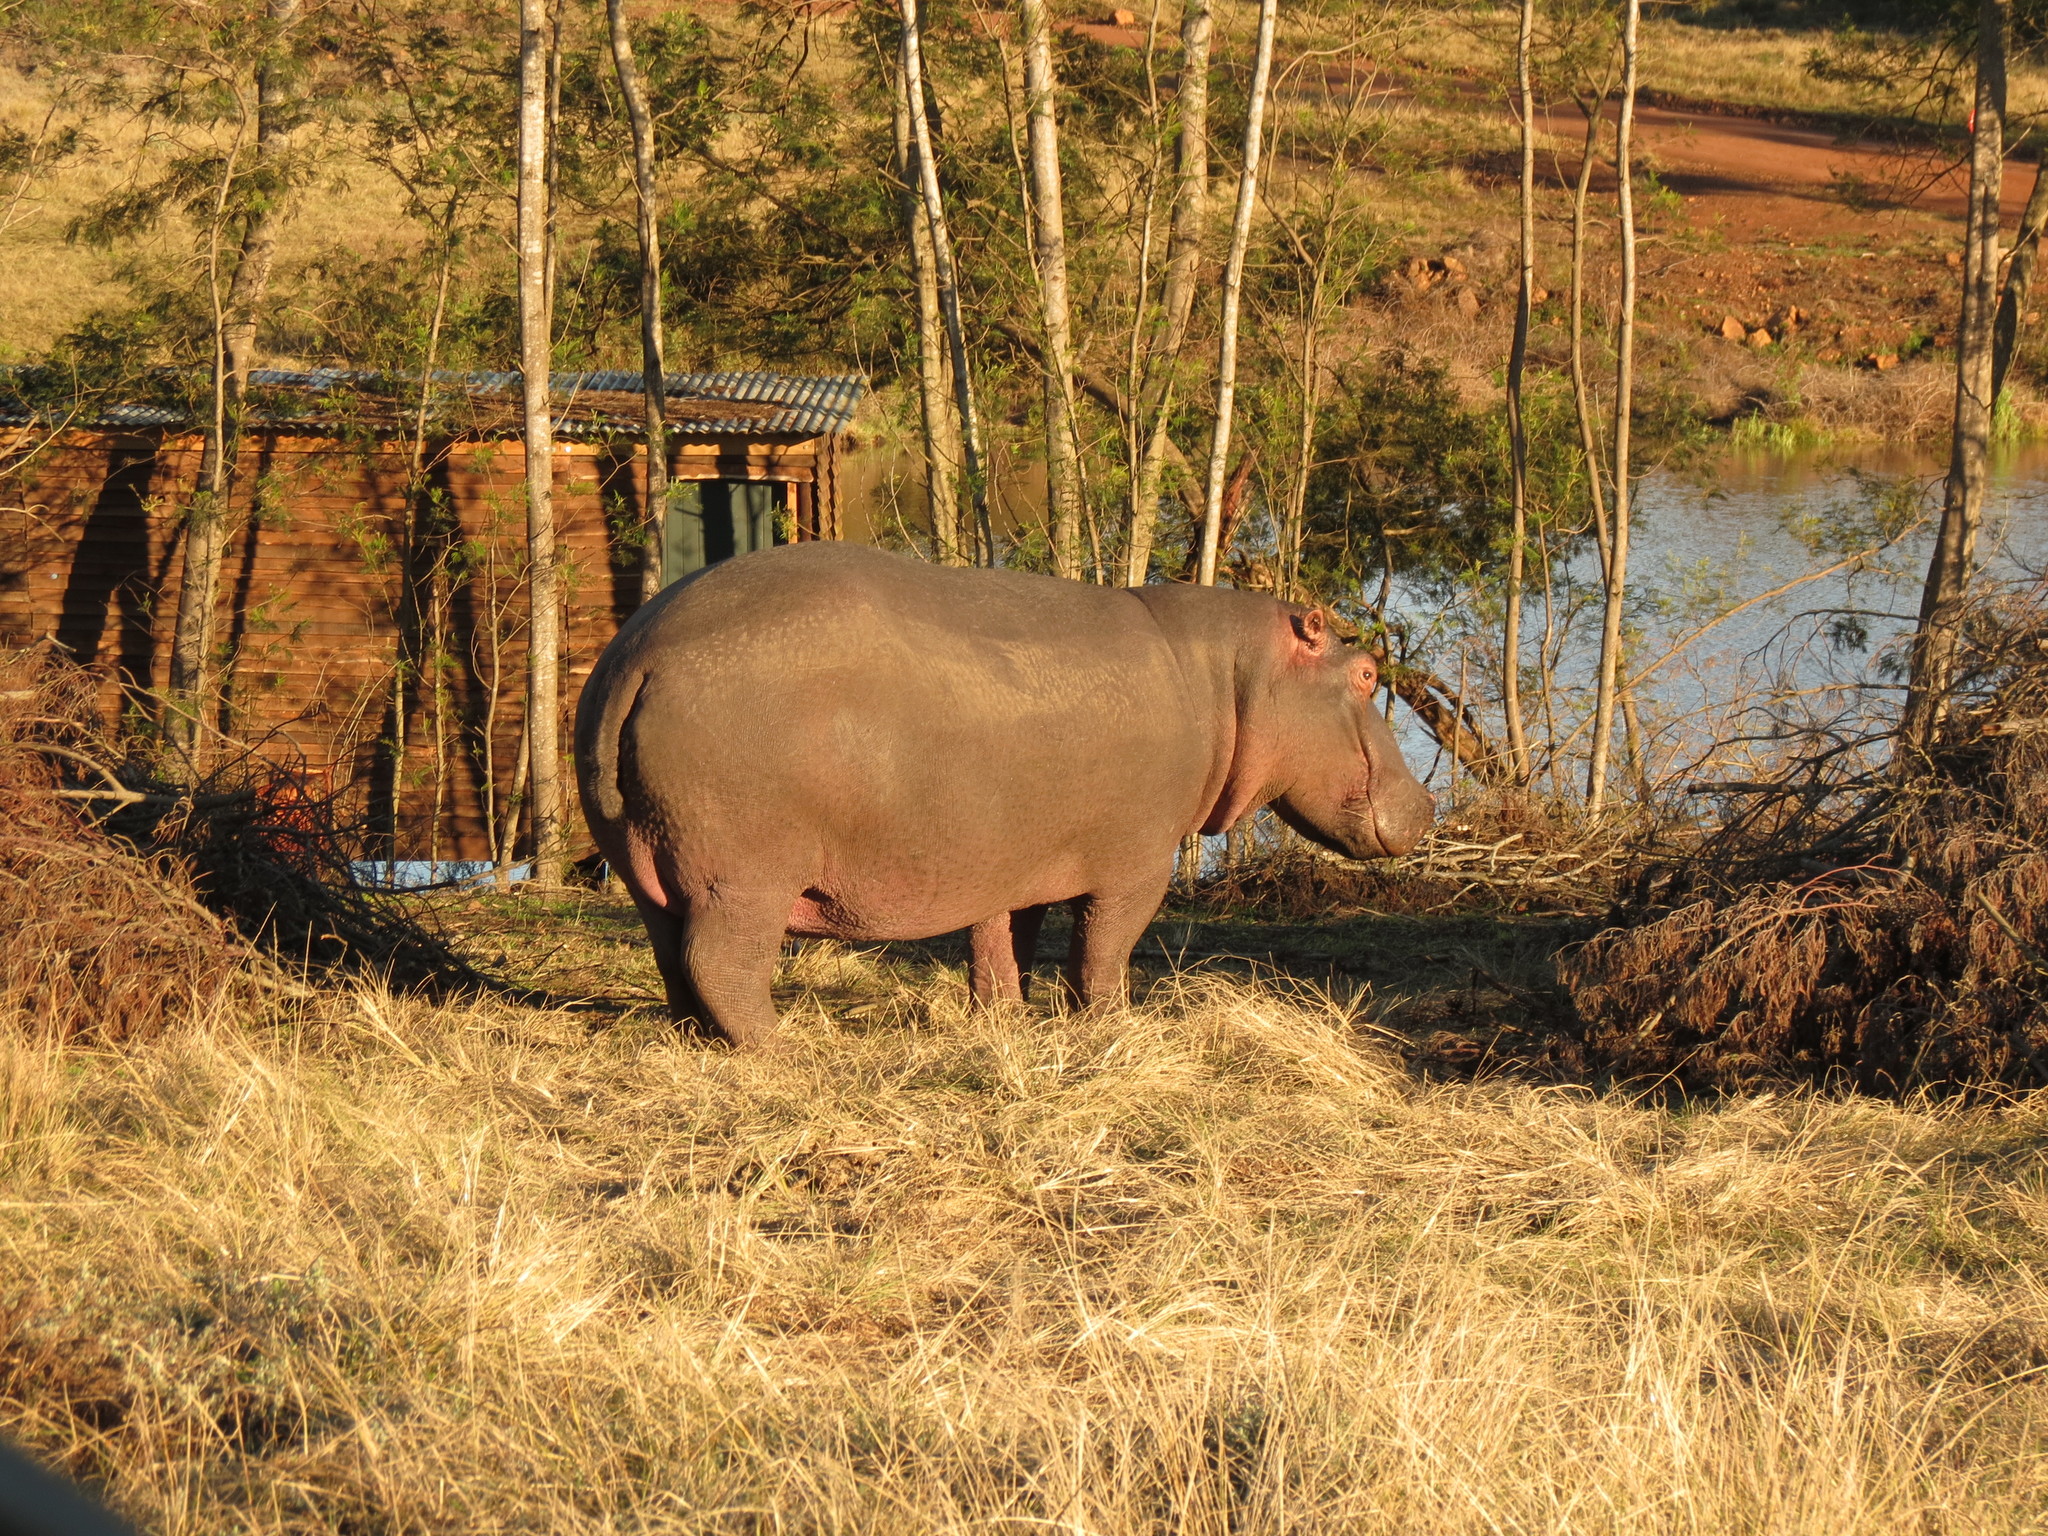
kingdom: Animalia
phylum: Chordata
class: Mammalia
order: Artiodactyla
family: Hippopotamidae
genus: Hippopotamus
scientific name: Hippopotamus amphibius
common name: Common hippopotamus
